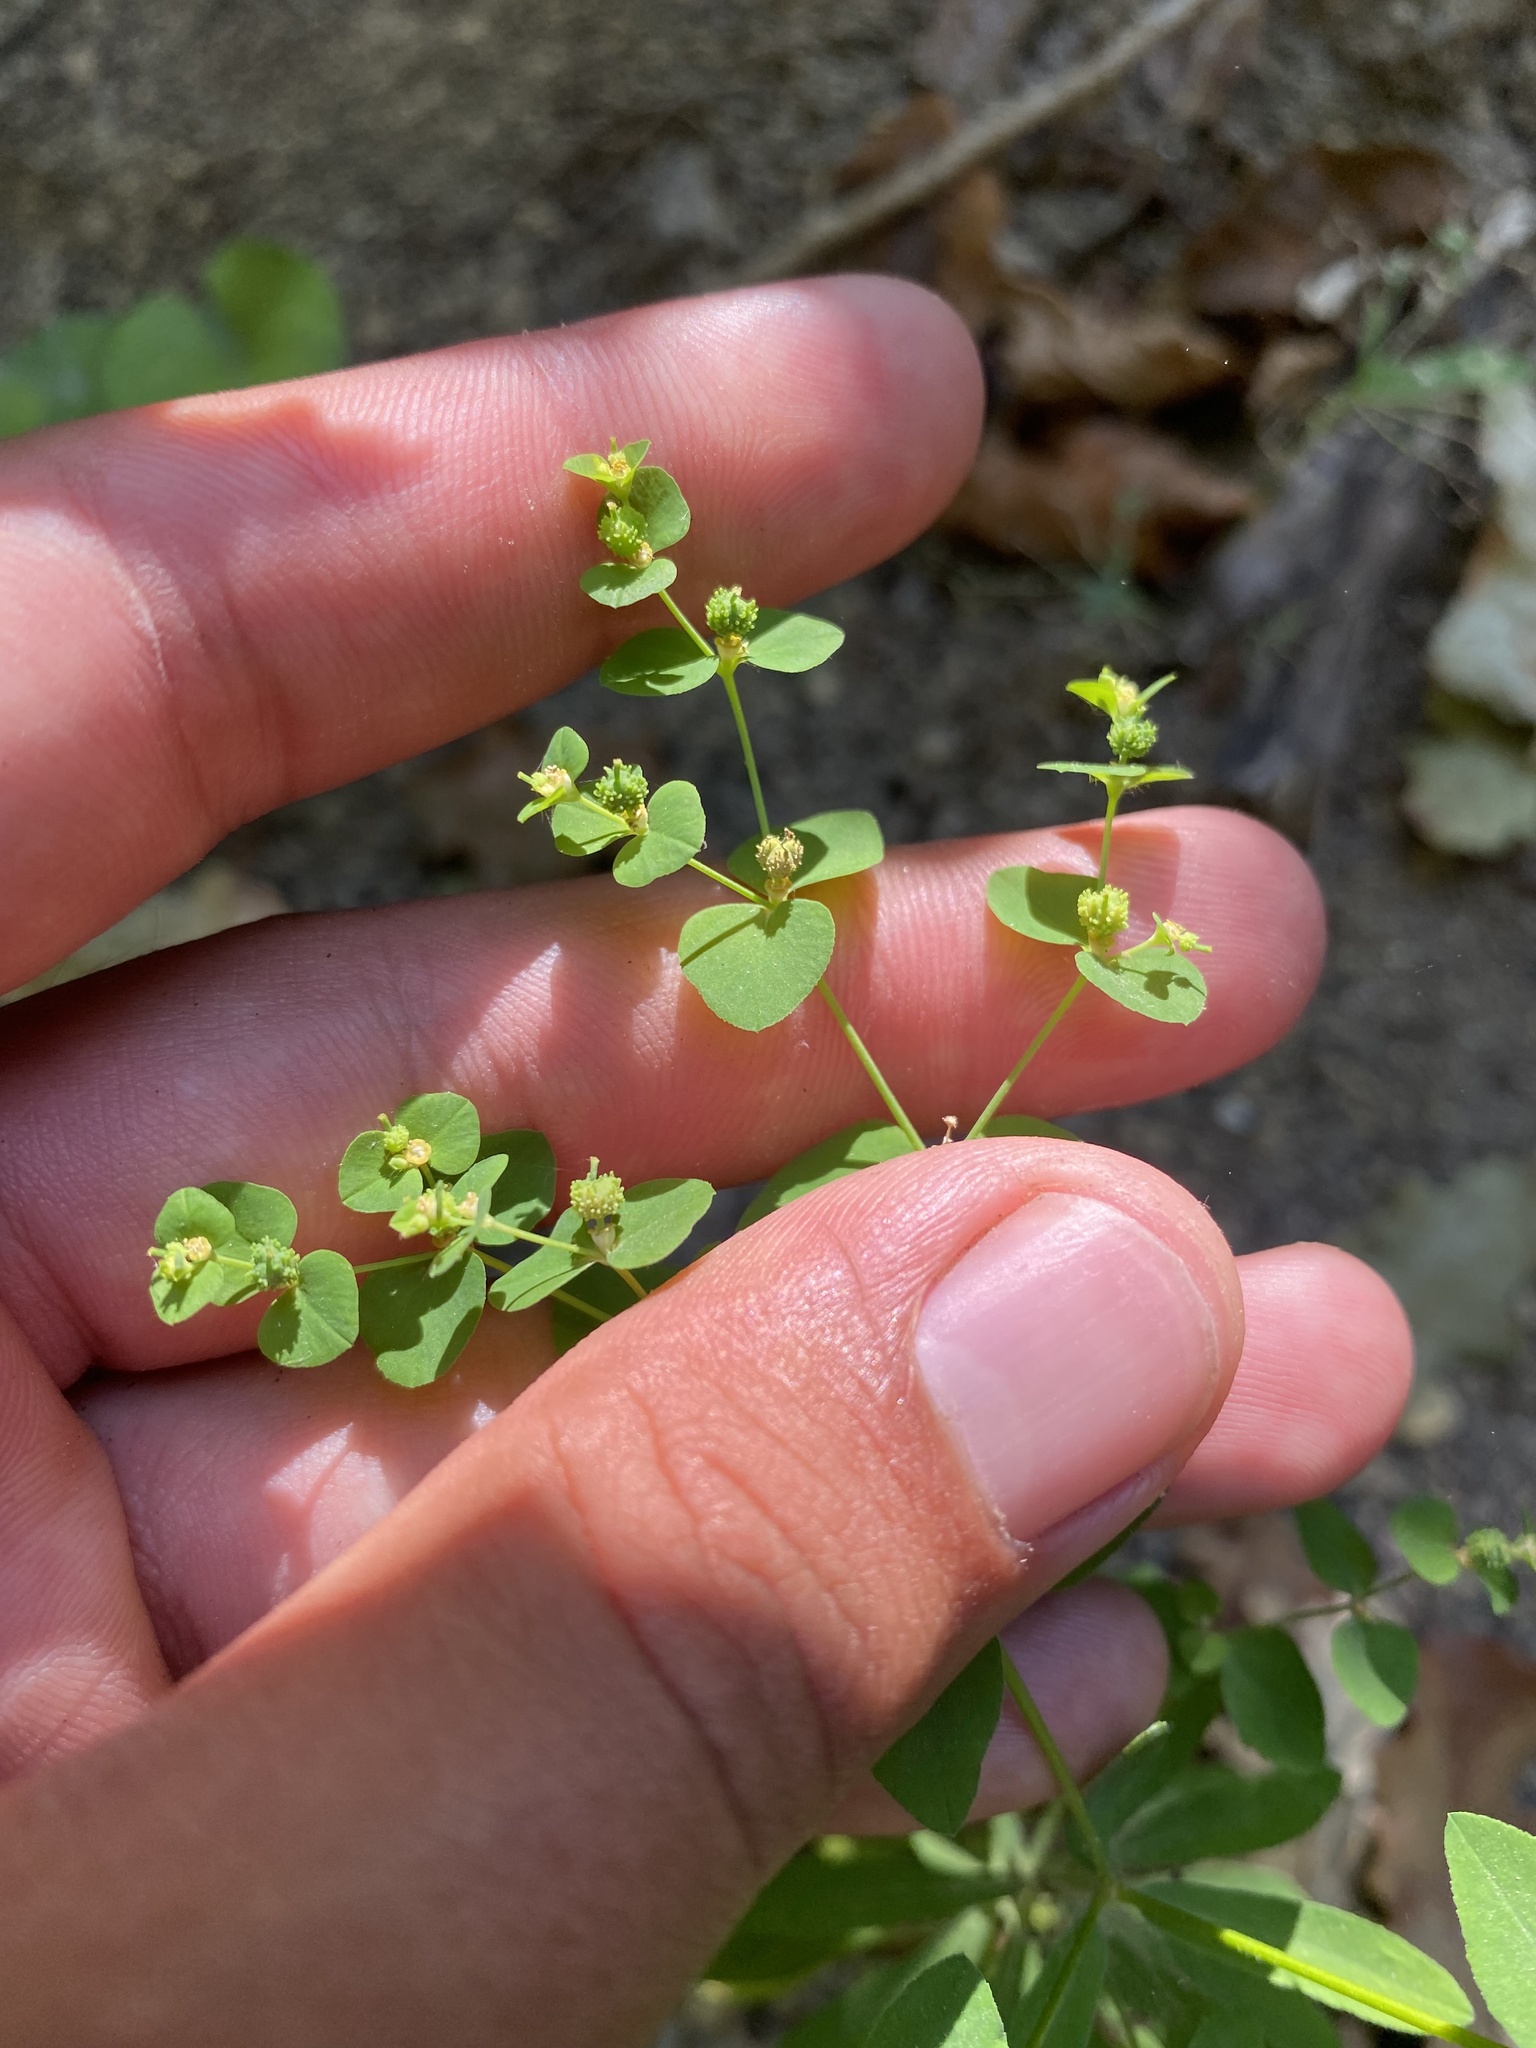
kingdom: Plantae
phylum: Tracheophyta
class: Magnoliopsida
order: Malpighiales
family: Euphorbiaceae
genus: Euphorbia
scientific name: Euphorbia stricta
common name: Upright spurge
